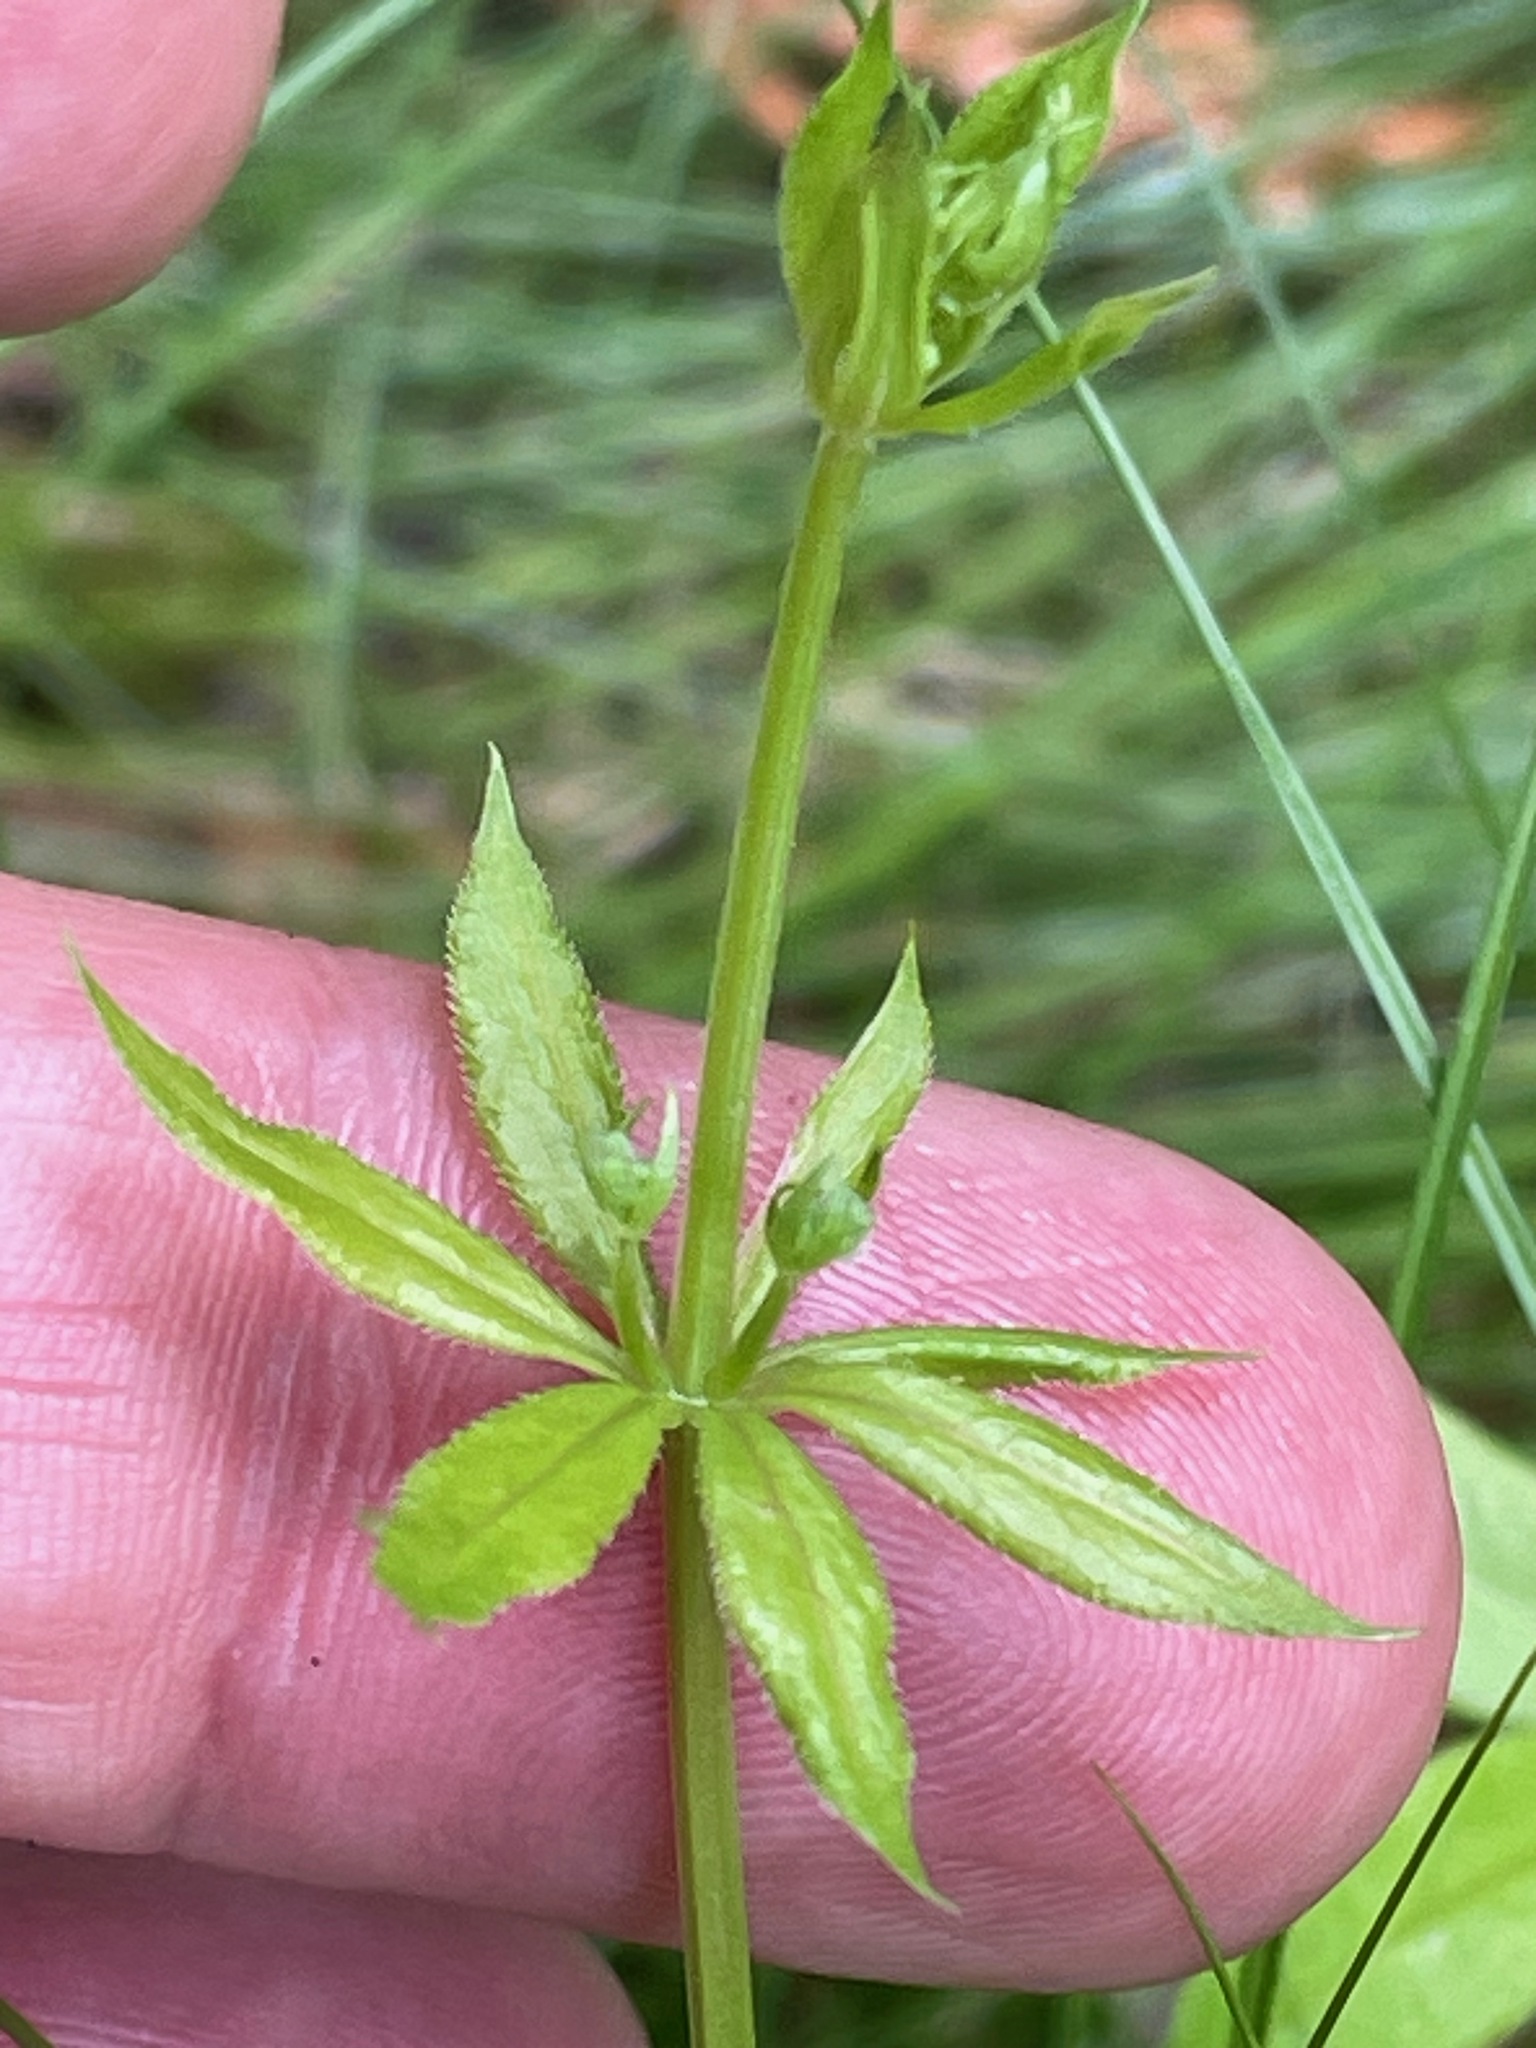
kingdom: Plantae
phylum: Tracheophyta
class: Magnoliopsida
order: Gentianales
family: Rubiaceae
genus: Galium
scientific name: Galium triflorum
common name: Fragrant bedstraw
